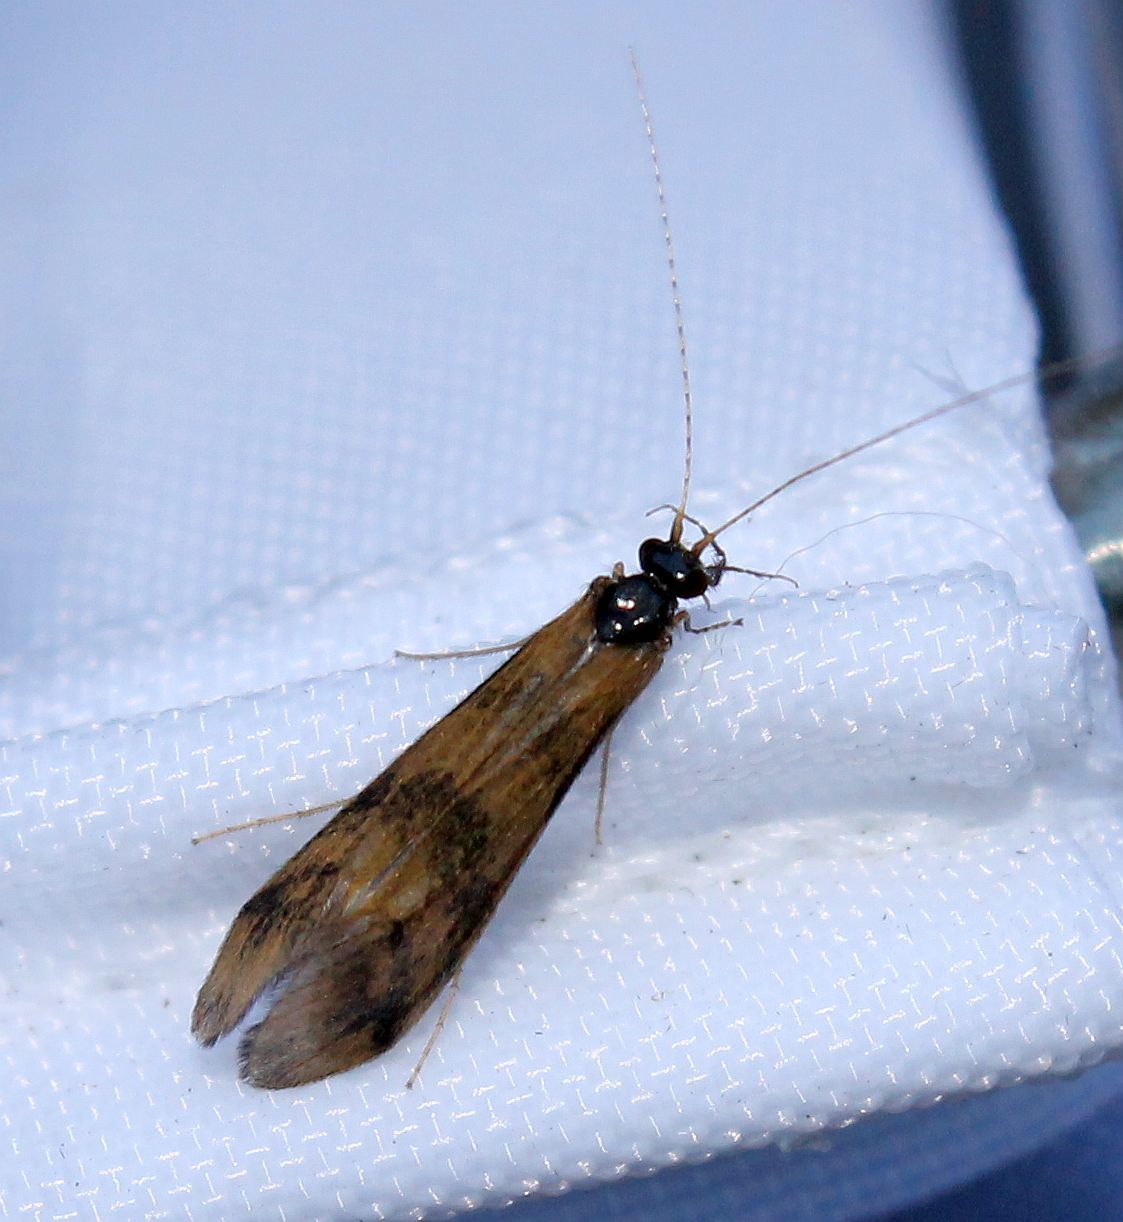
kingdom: Animalia
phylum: Arthropoda
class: Insecta
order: Trichoptera
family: Leptoceridae
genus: Mystacides
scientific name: Mystacides longicornis
